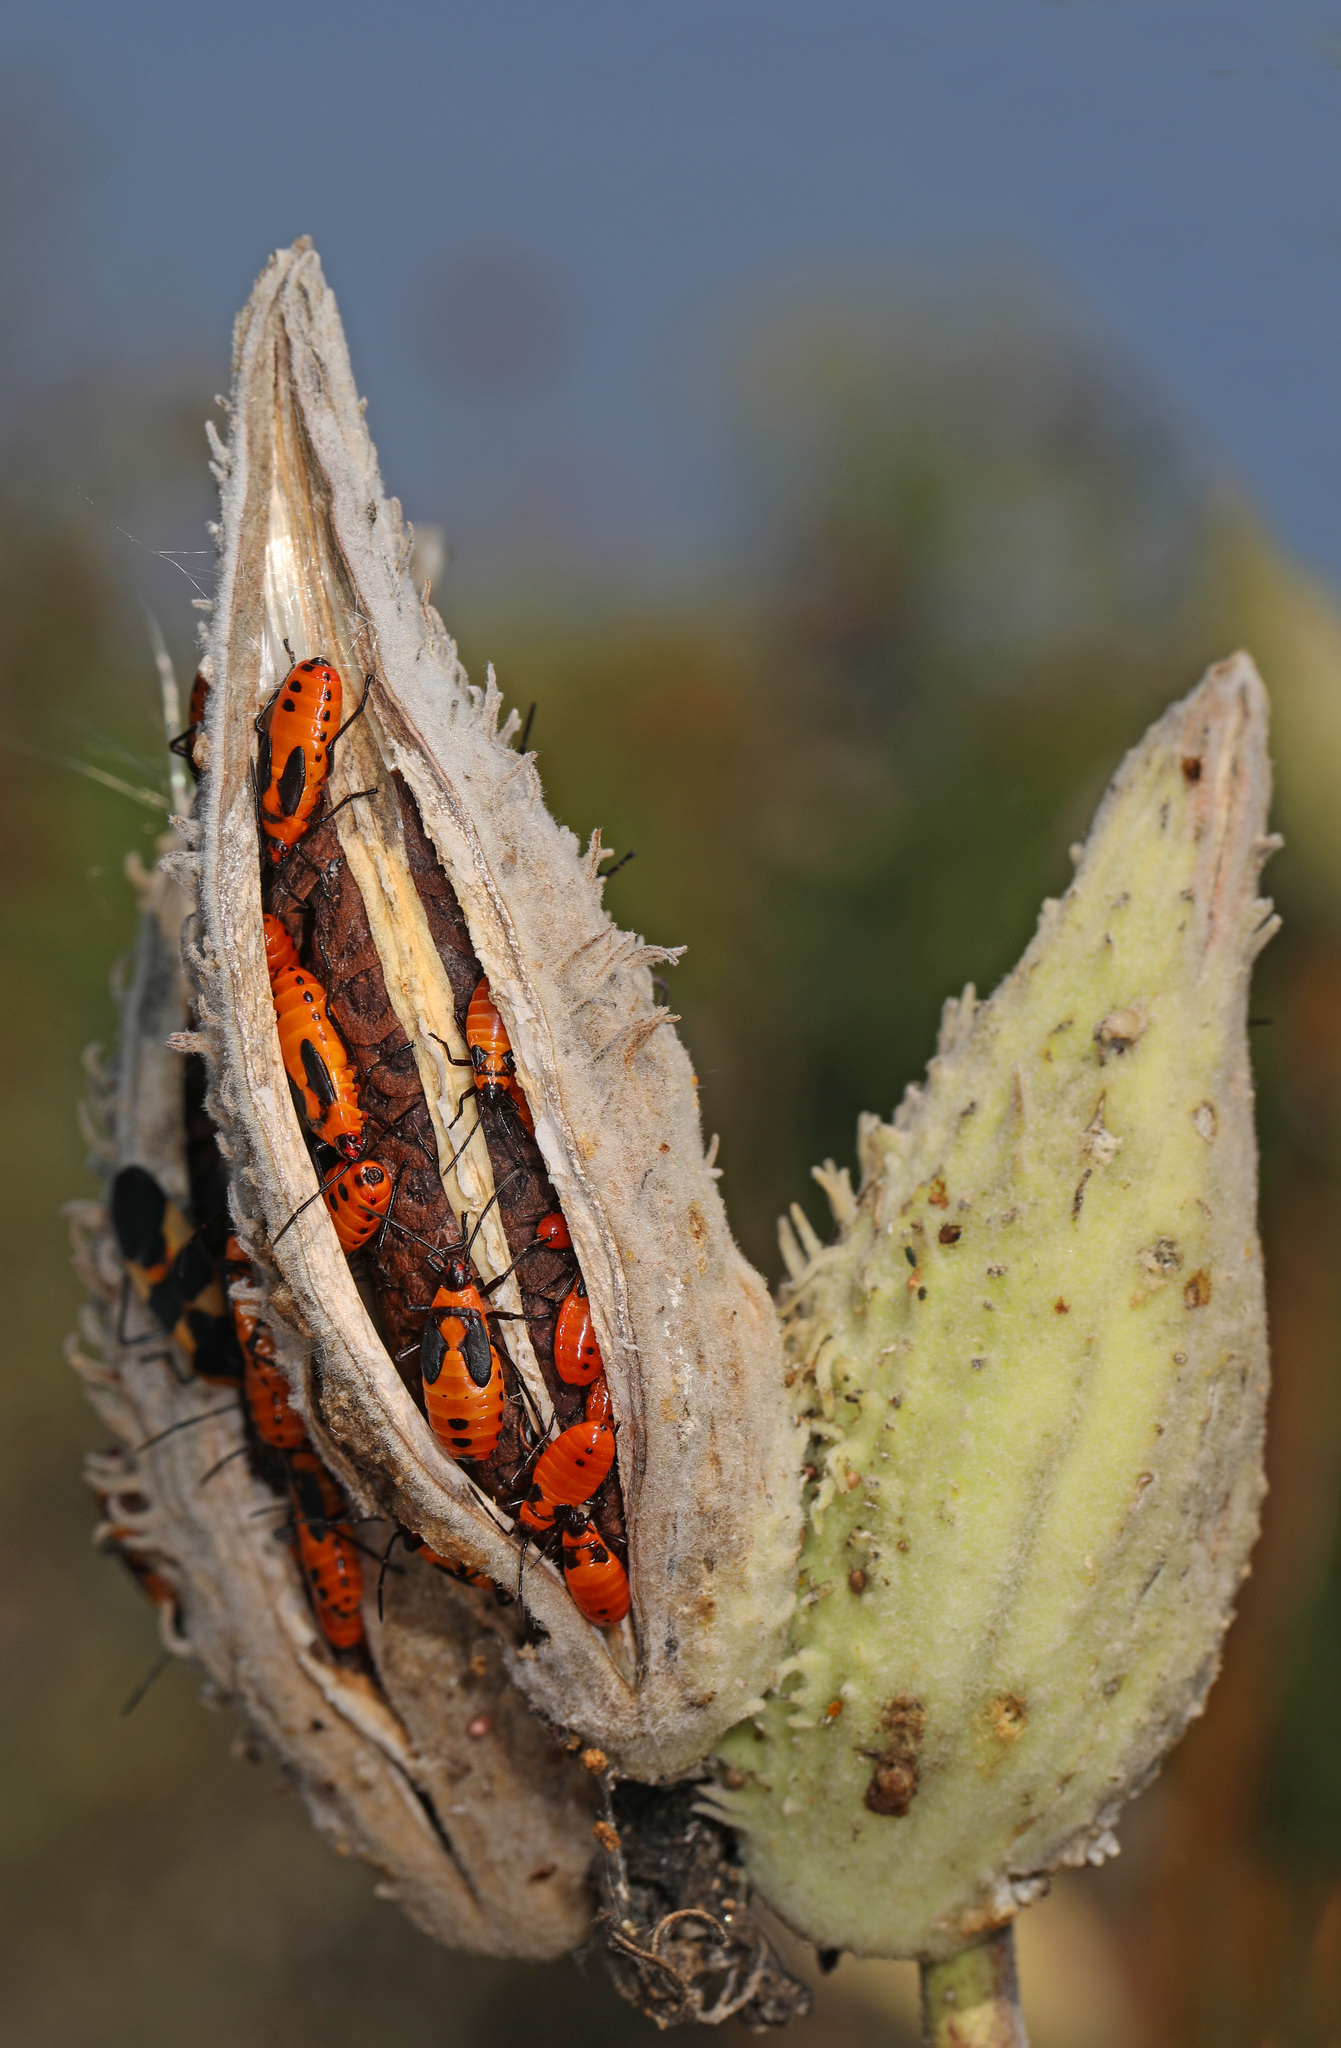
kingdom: Animalia
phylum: Arthropoda
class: Insecta
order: Hemiptera
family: Lygaeidae
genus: Oncopeltus
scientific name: Oncopeltus fasciatus
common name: Large milkweed bug
